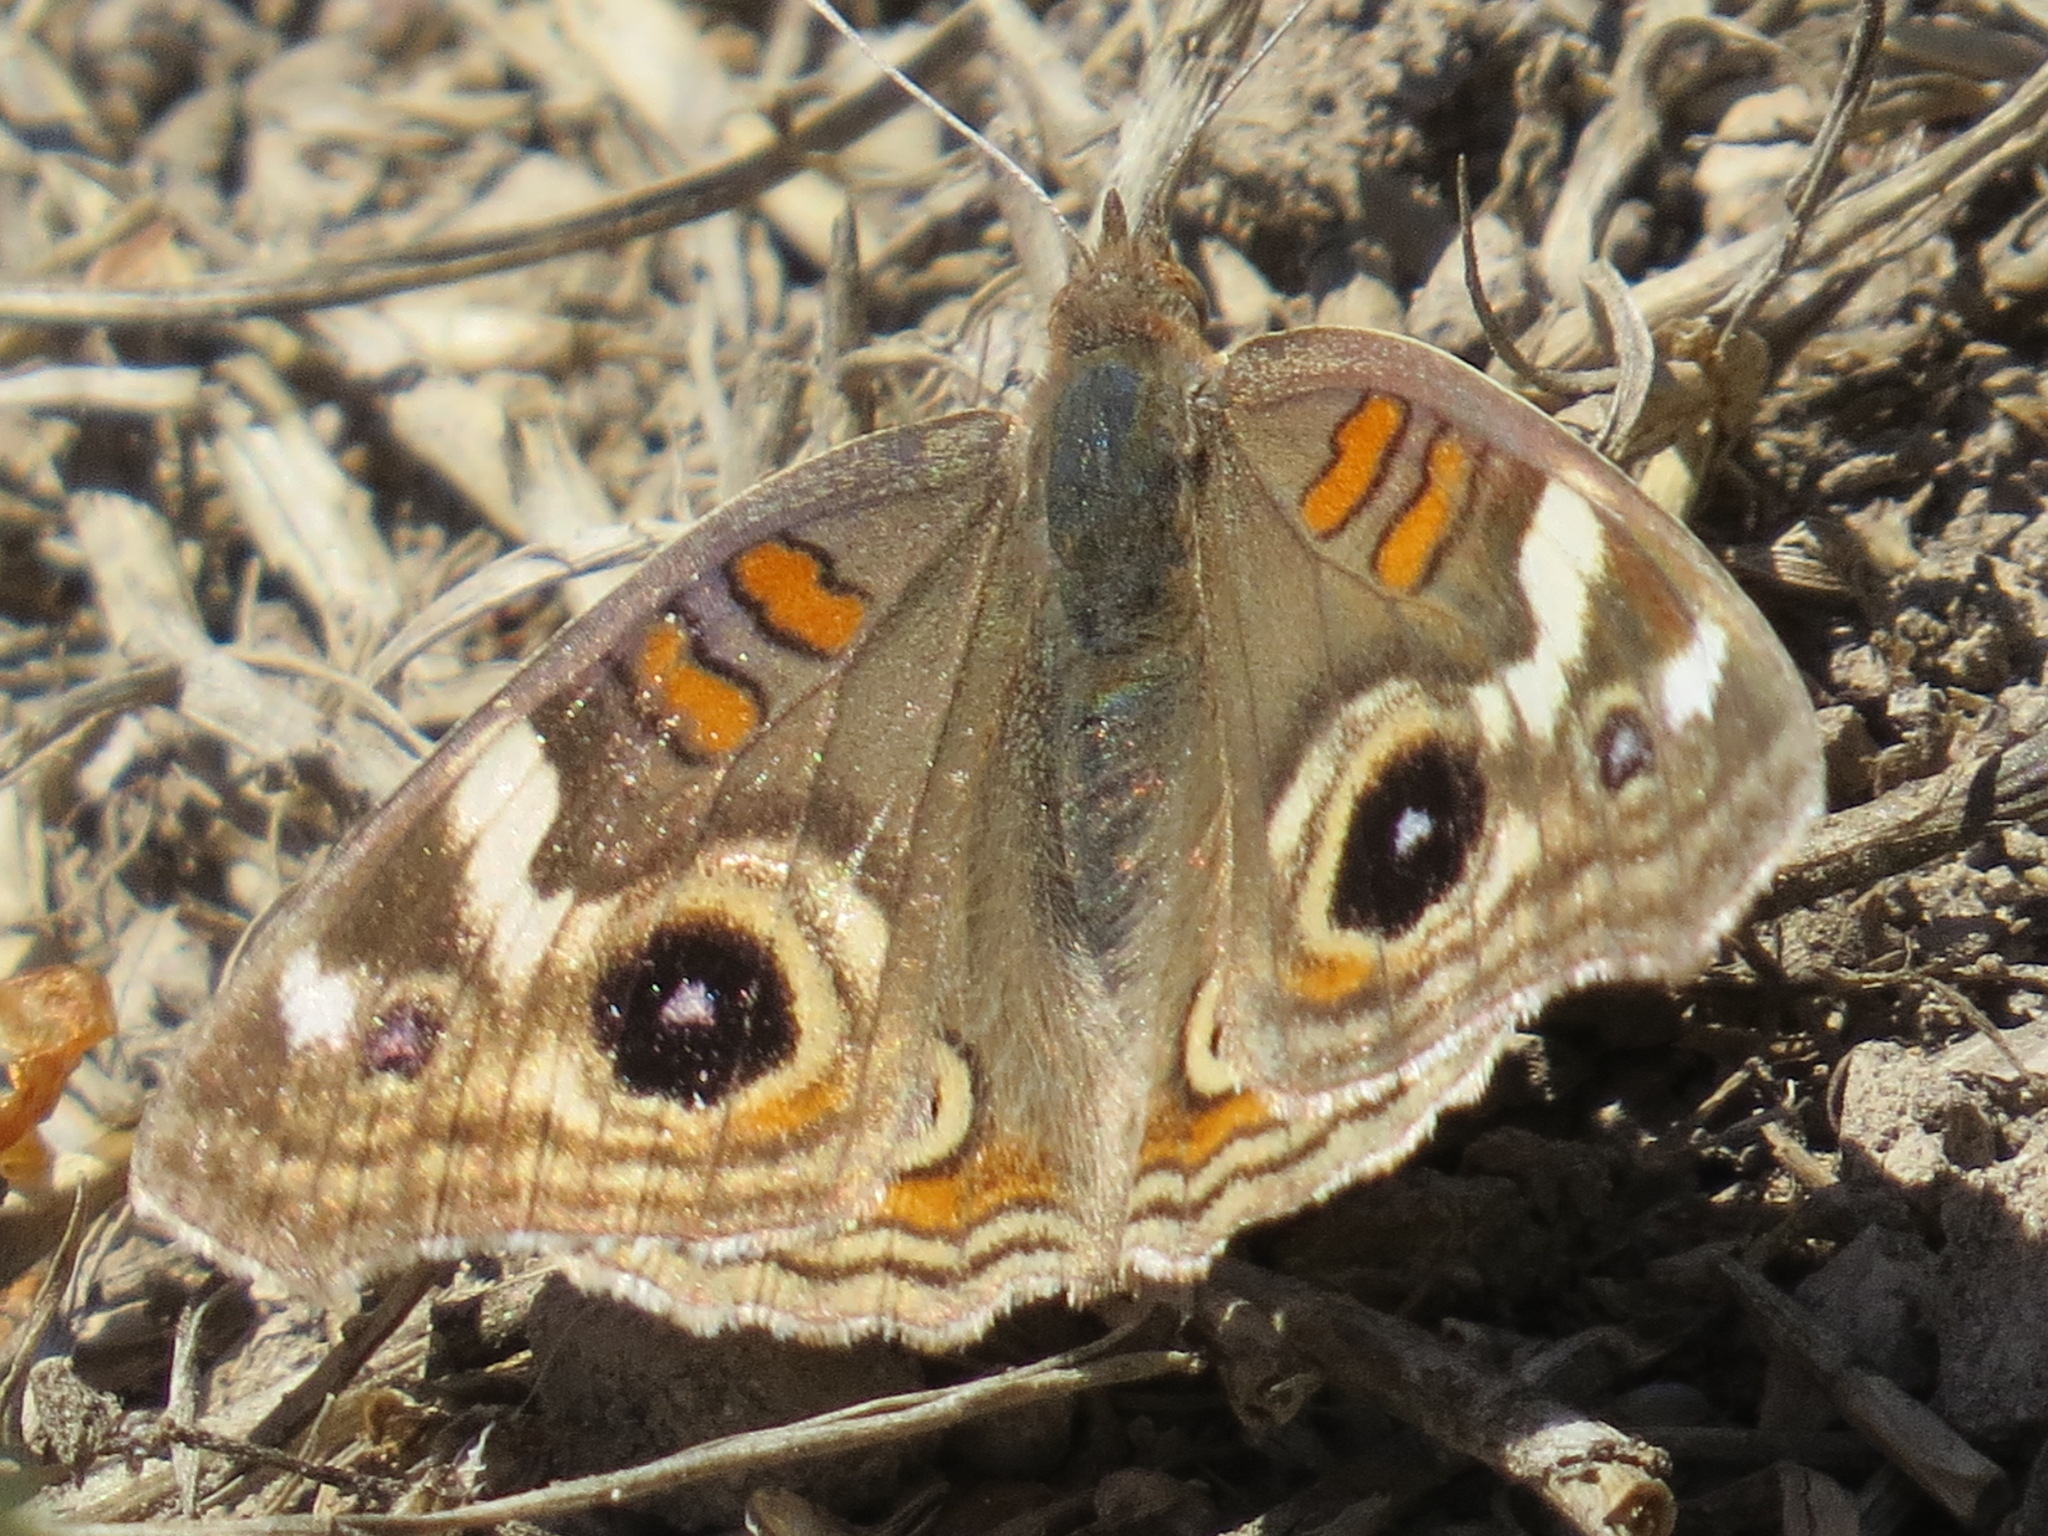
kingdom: Animalia
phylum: Arthropoda
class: Insecta
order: Lepidoptera
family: Nymphalidae
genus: Junonia
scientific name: Junonia grisea
